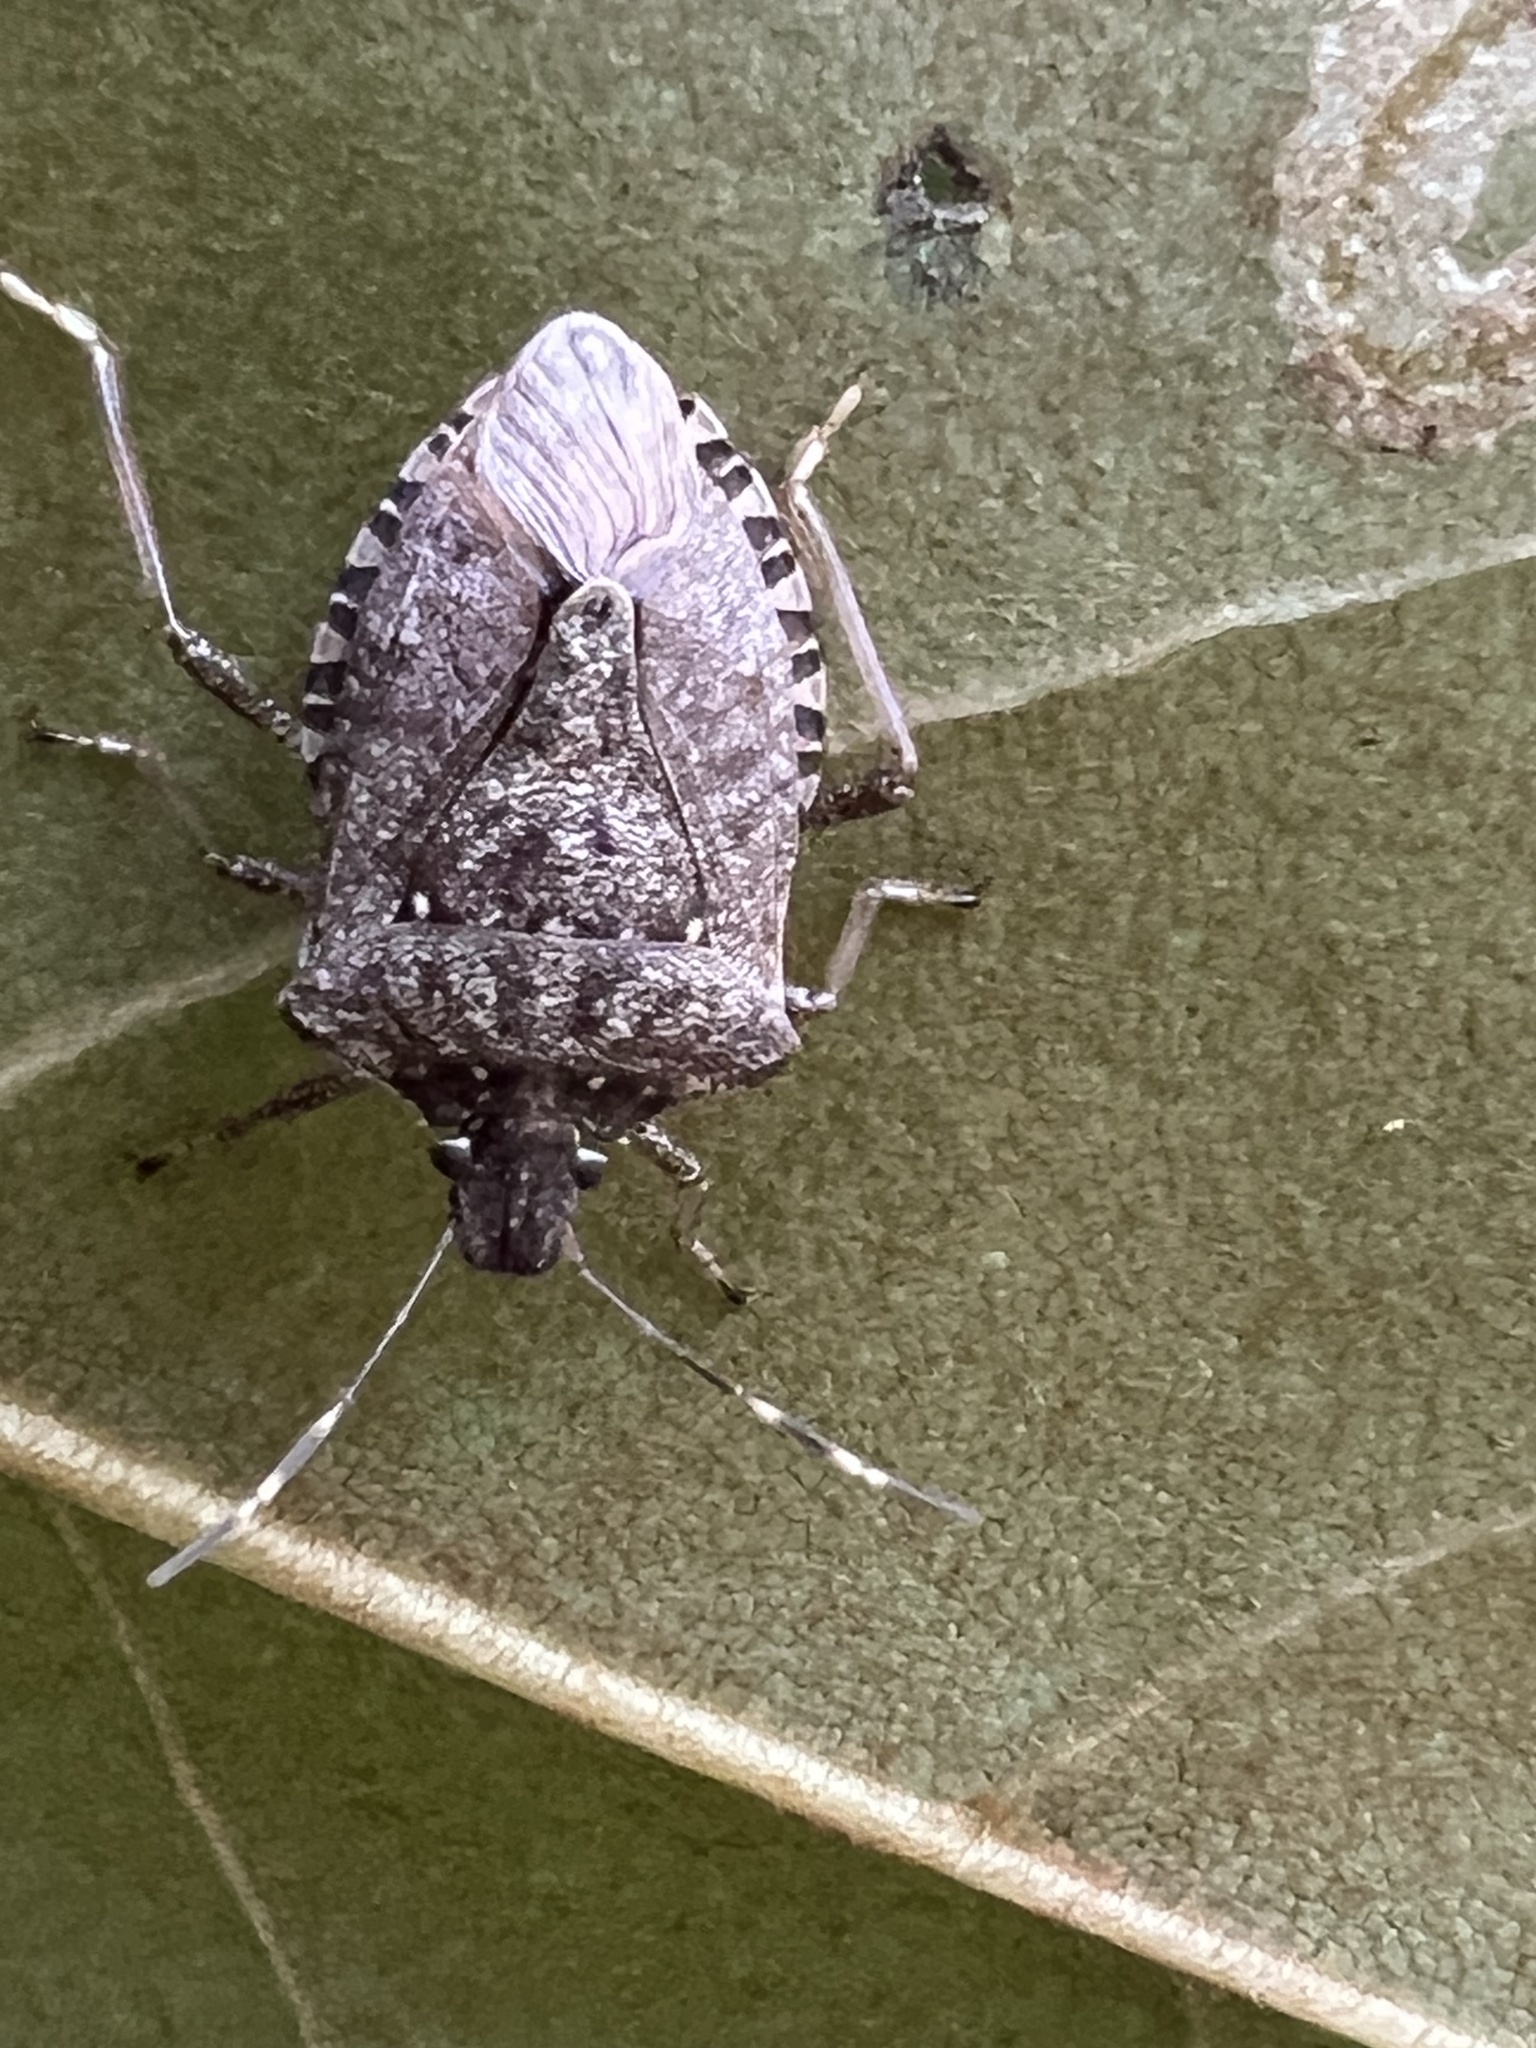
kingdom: Animalia
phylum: Arthropoda
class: Insecta
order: Hemiptera
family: Pentatomidae
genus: Halyomorpha
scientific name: Halyomorpha halys
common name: Brown marmorated stink bug
